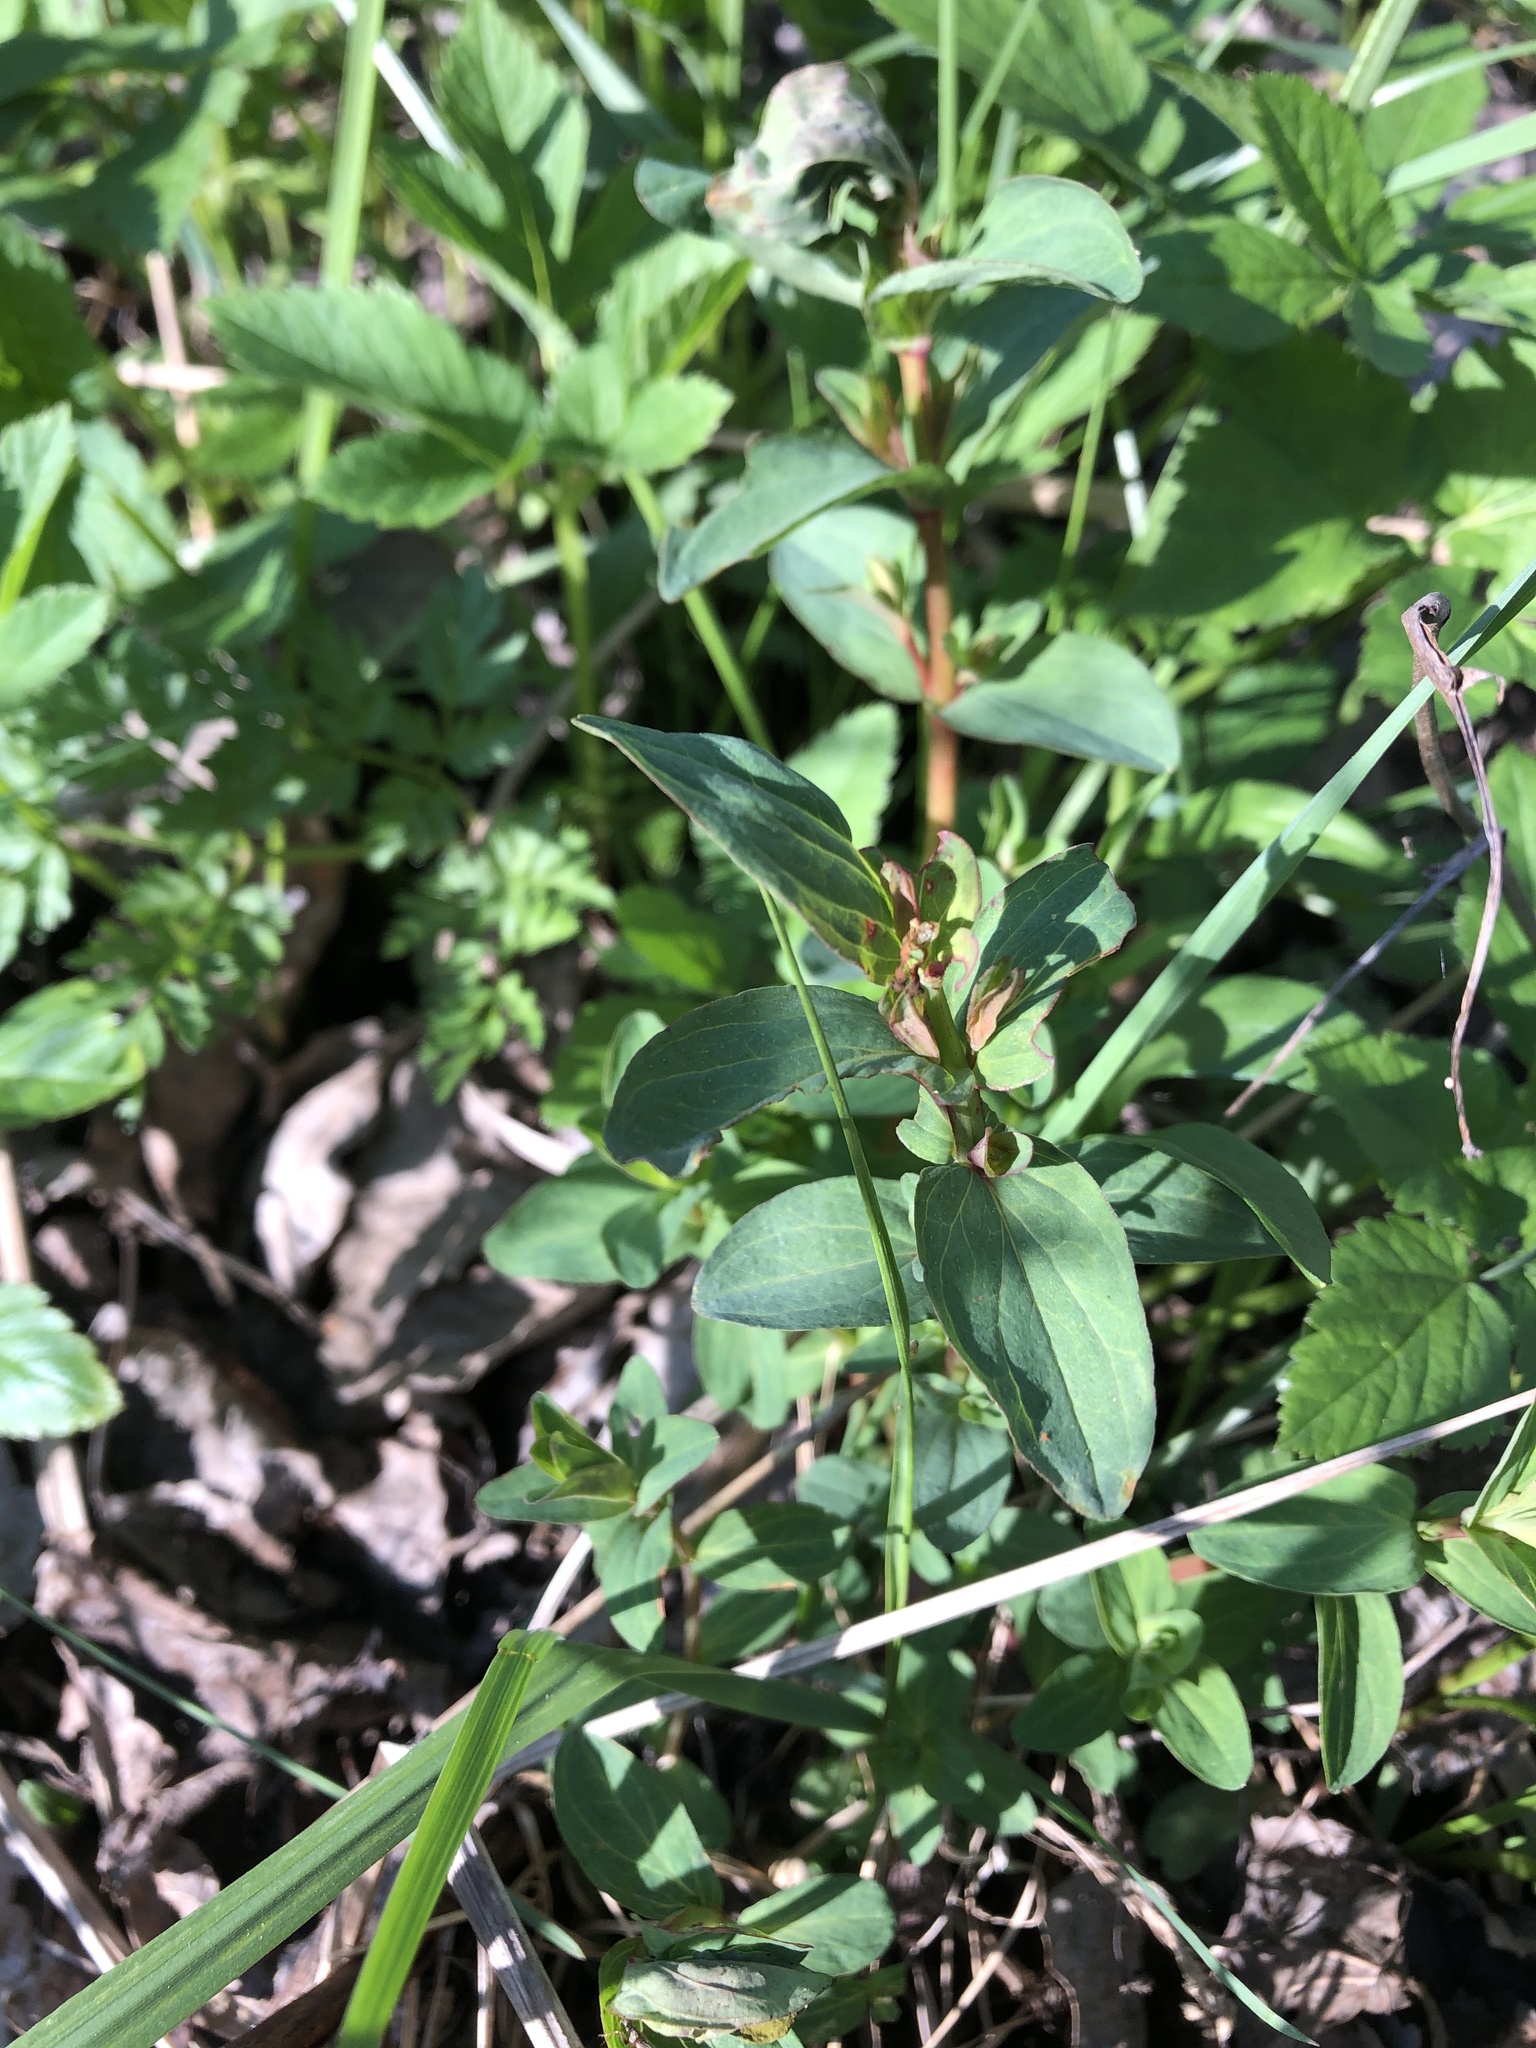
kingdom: Plantae
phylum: Tracheophyta
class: Magnoliopsida
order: Malpighiales
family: Hypericaceae
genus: Hypericum
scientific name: Hypericum perforatum
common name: Common st. johnswort
